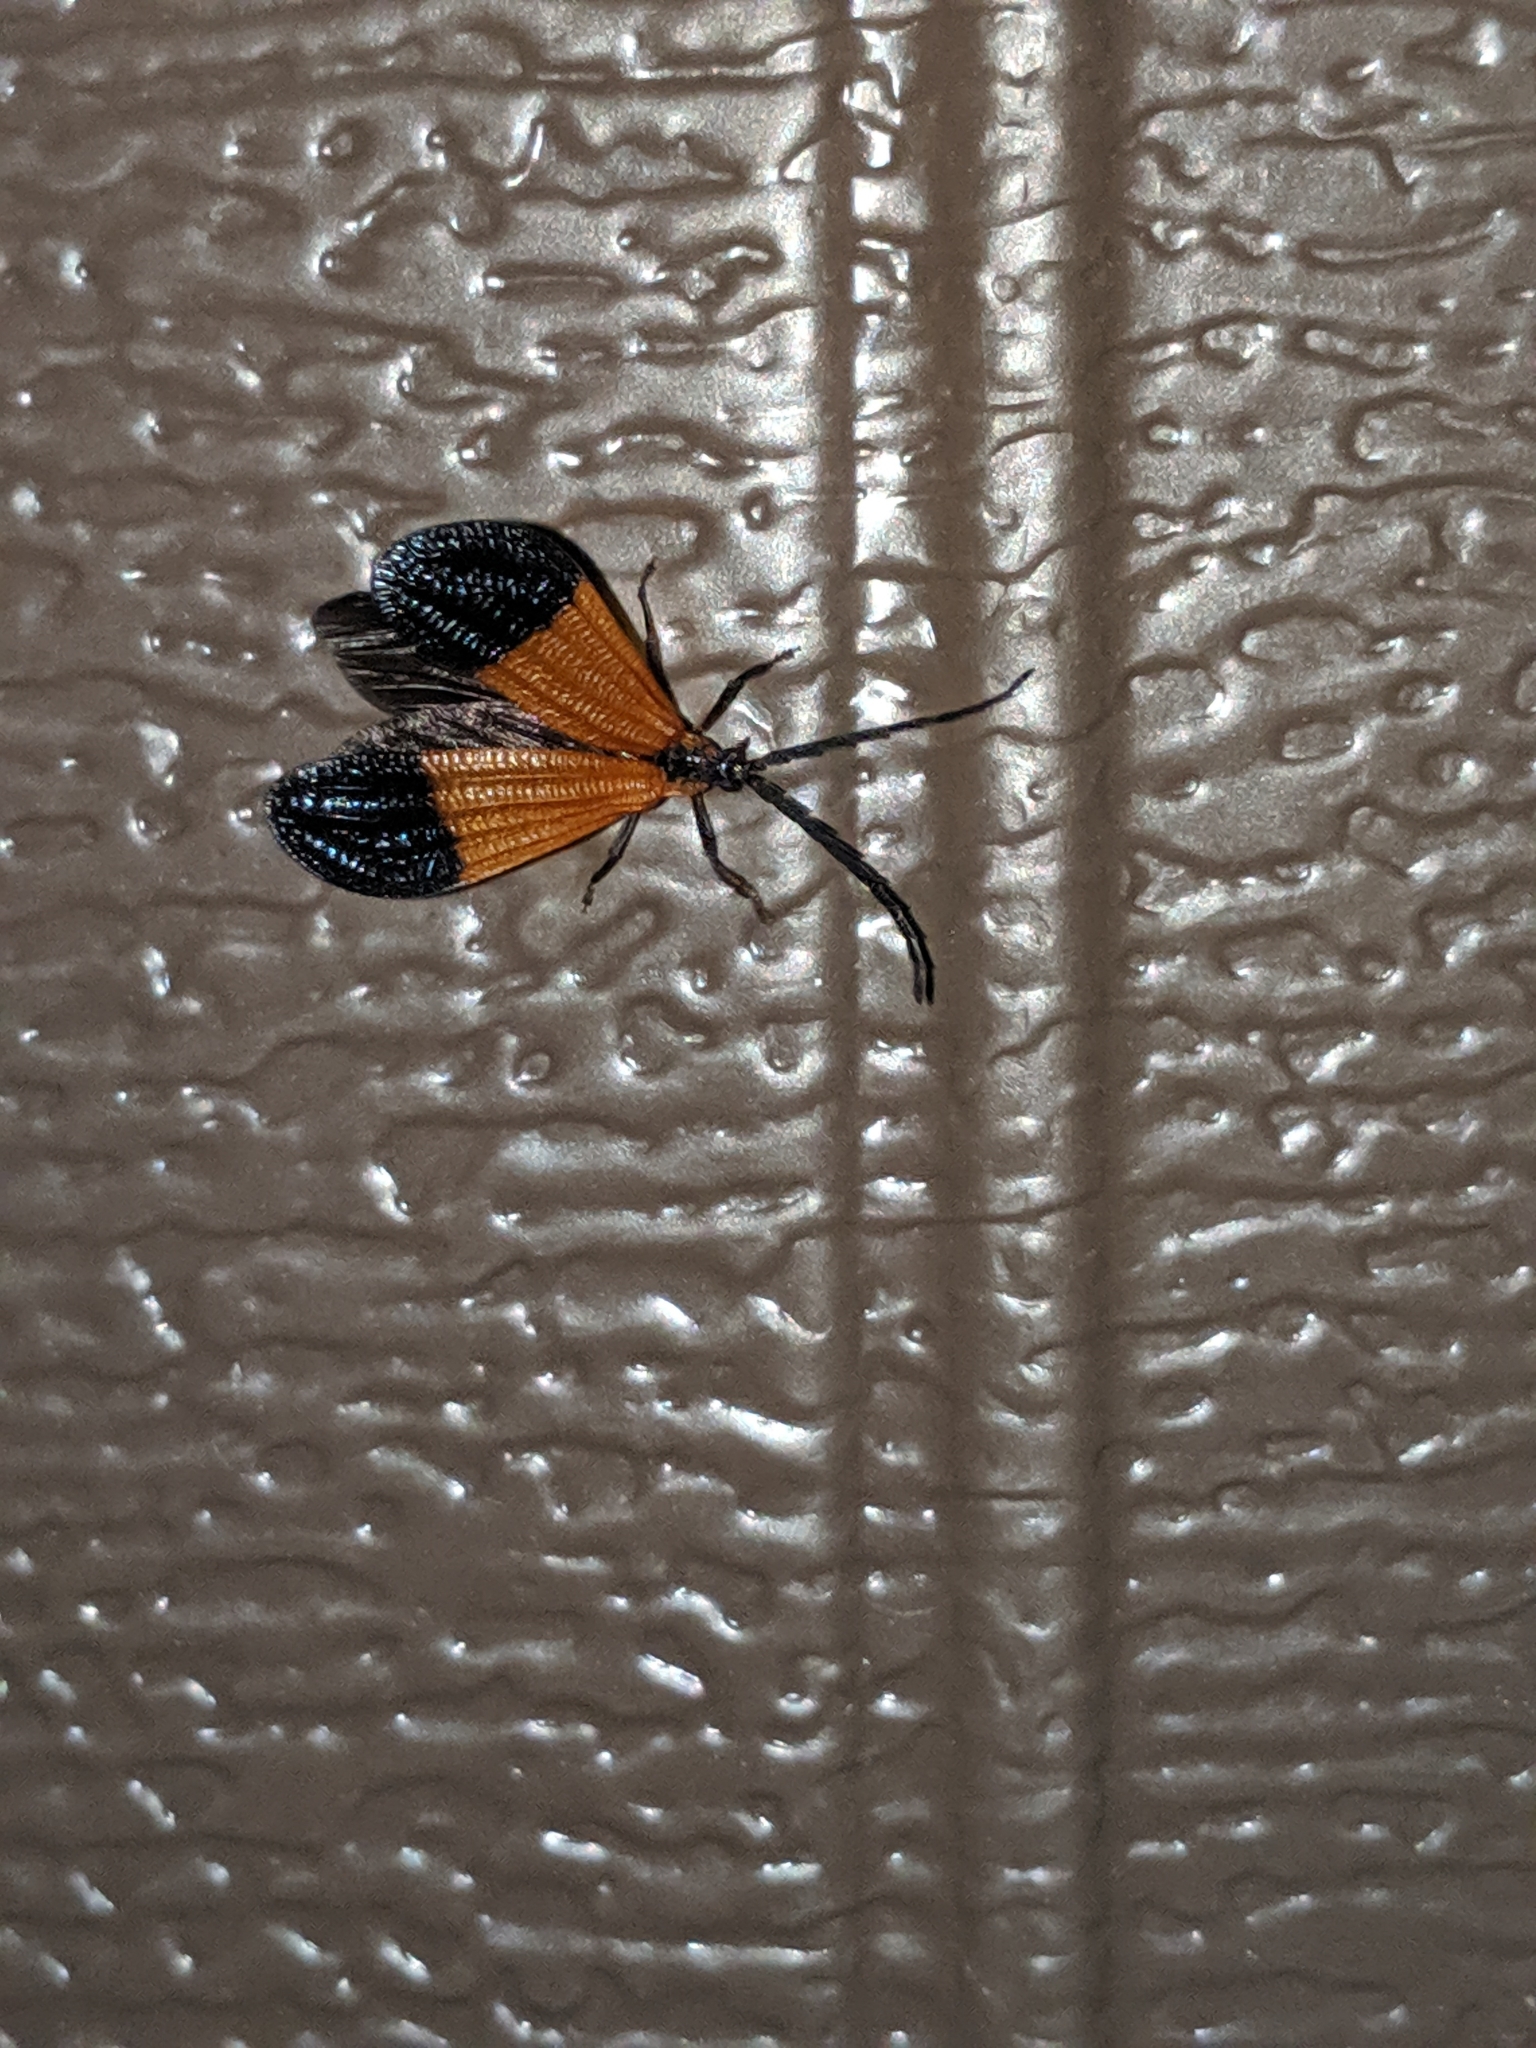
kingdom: Animalia
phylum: Arthropoda
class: Insecta
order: Coleoptera
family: Lycidae
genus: Calopteron
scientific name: Calopteron terminale
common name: End band net-winged beetle
